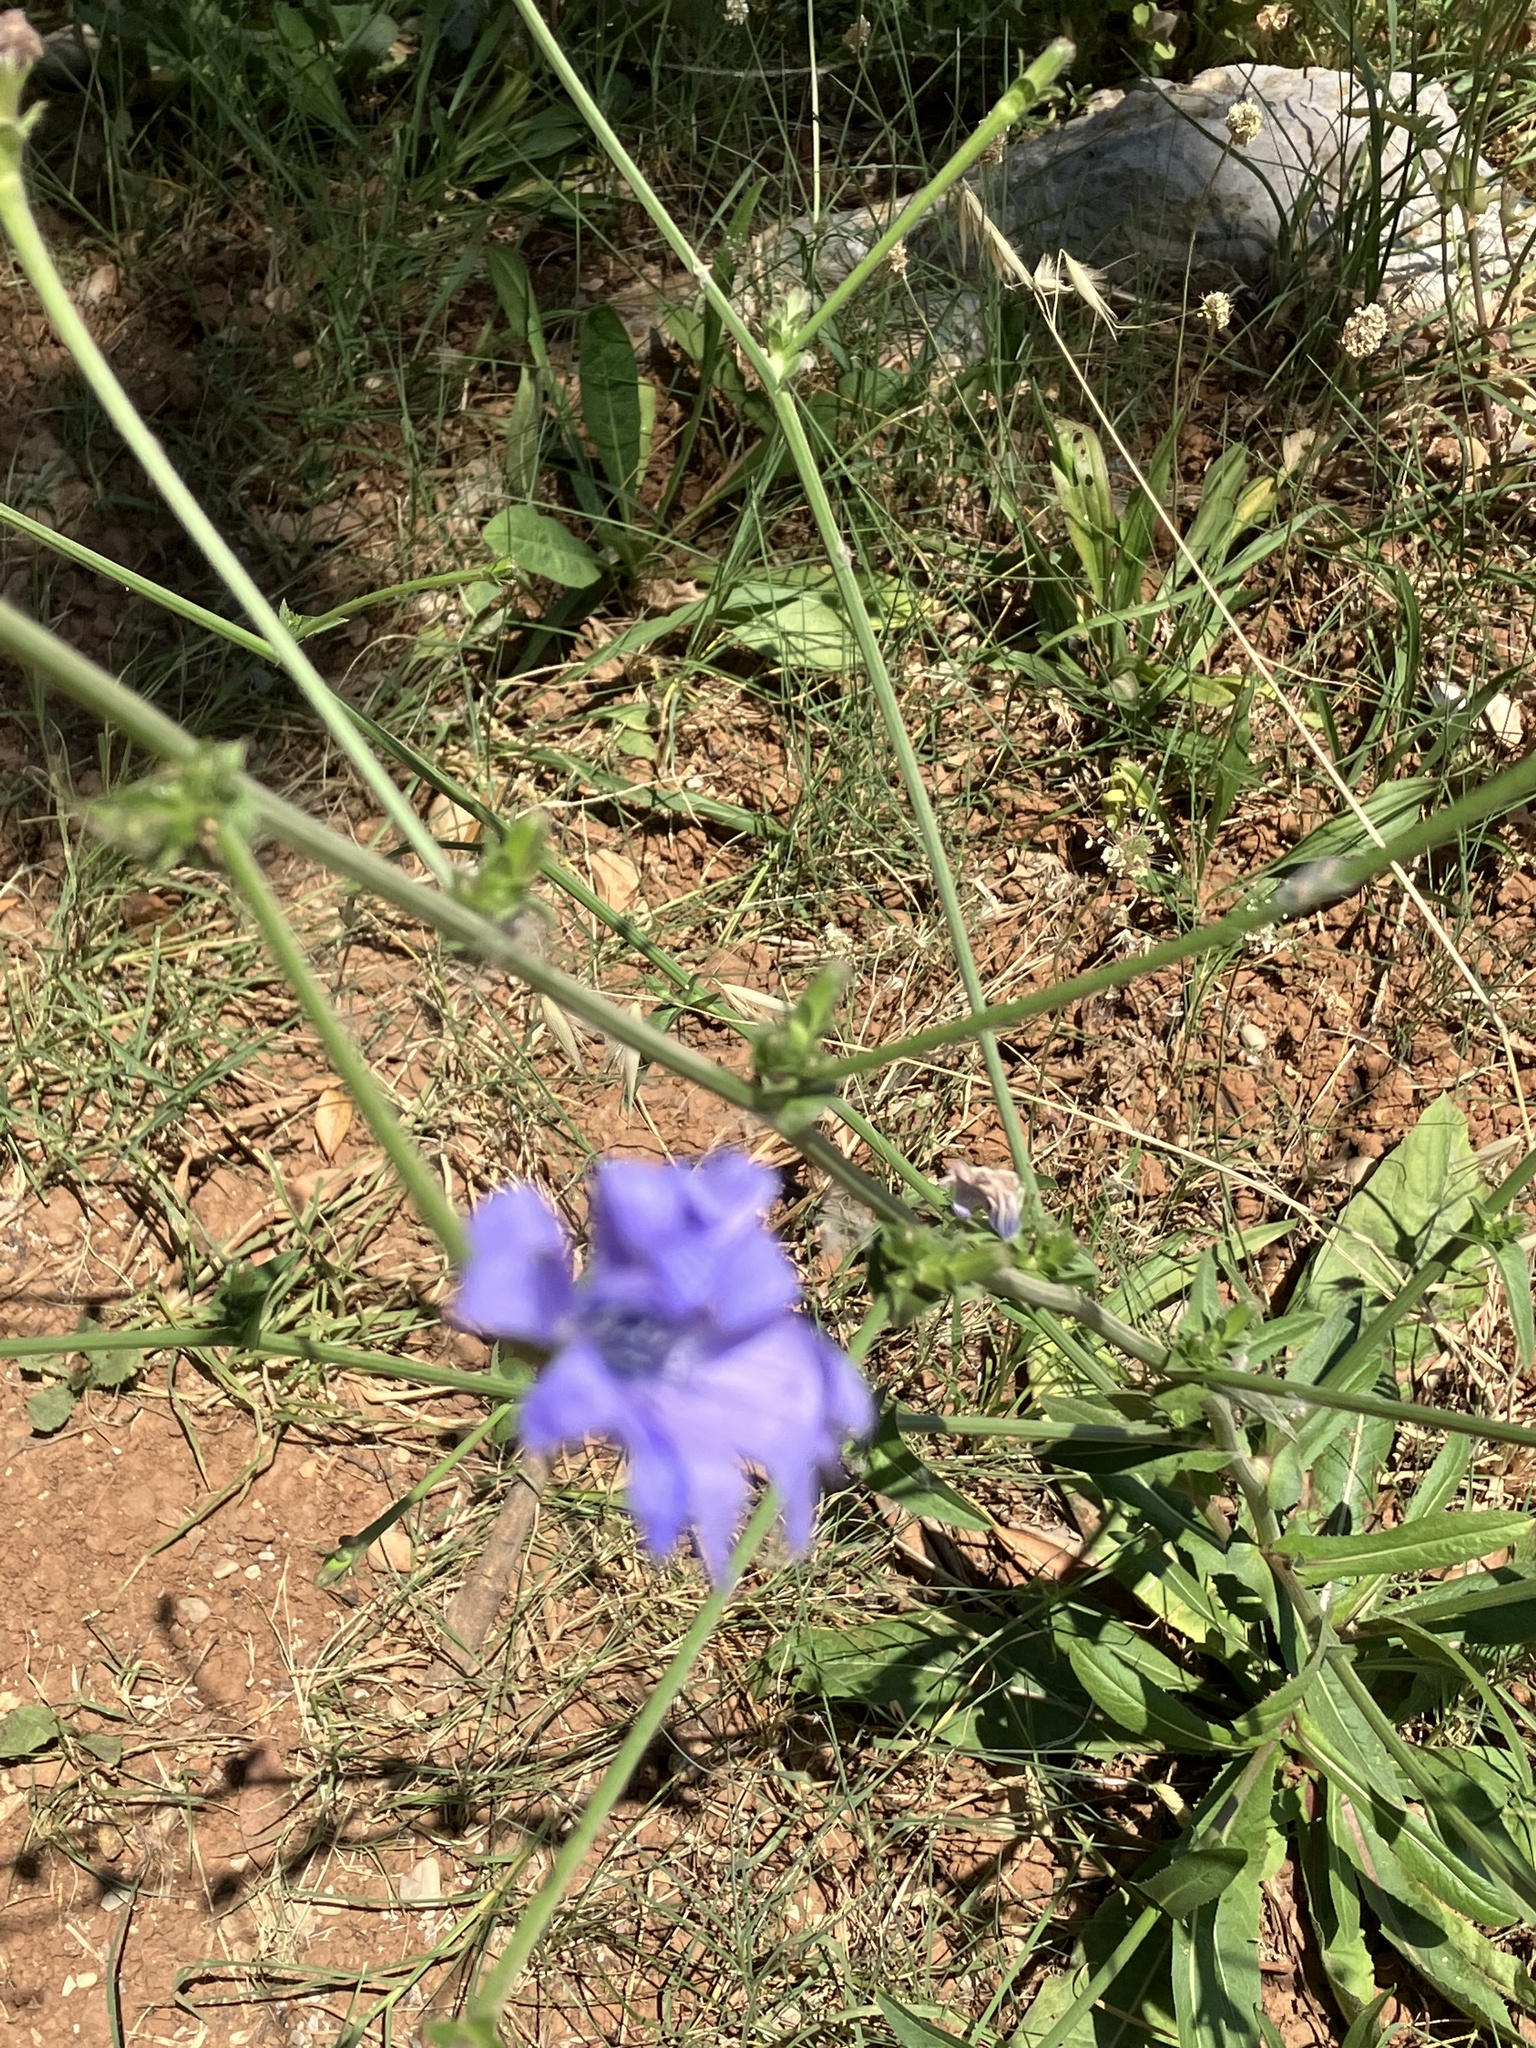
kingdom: Plantae
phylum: Tracheophyta
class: Magnoliopsida
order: Asterales
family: Asteraceae
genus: Cichorium
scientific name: Cichorium intybus
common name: Chicory
